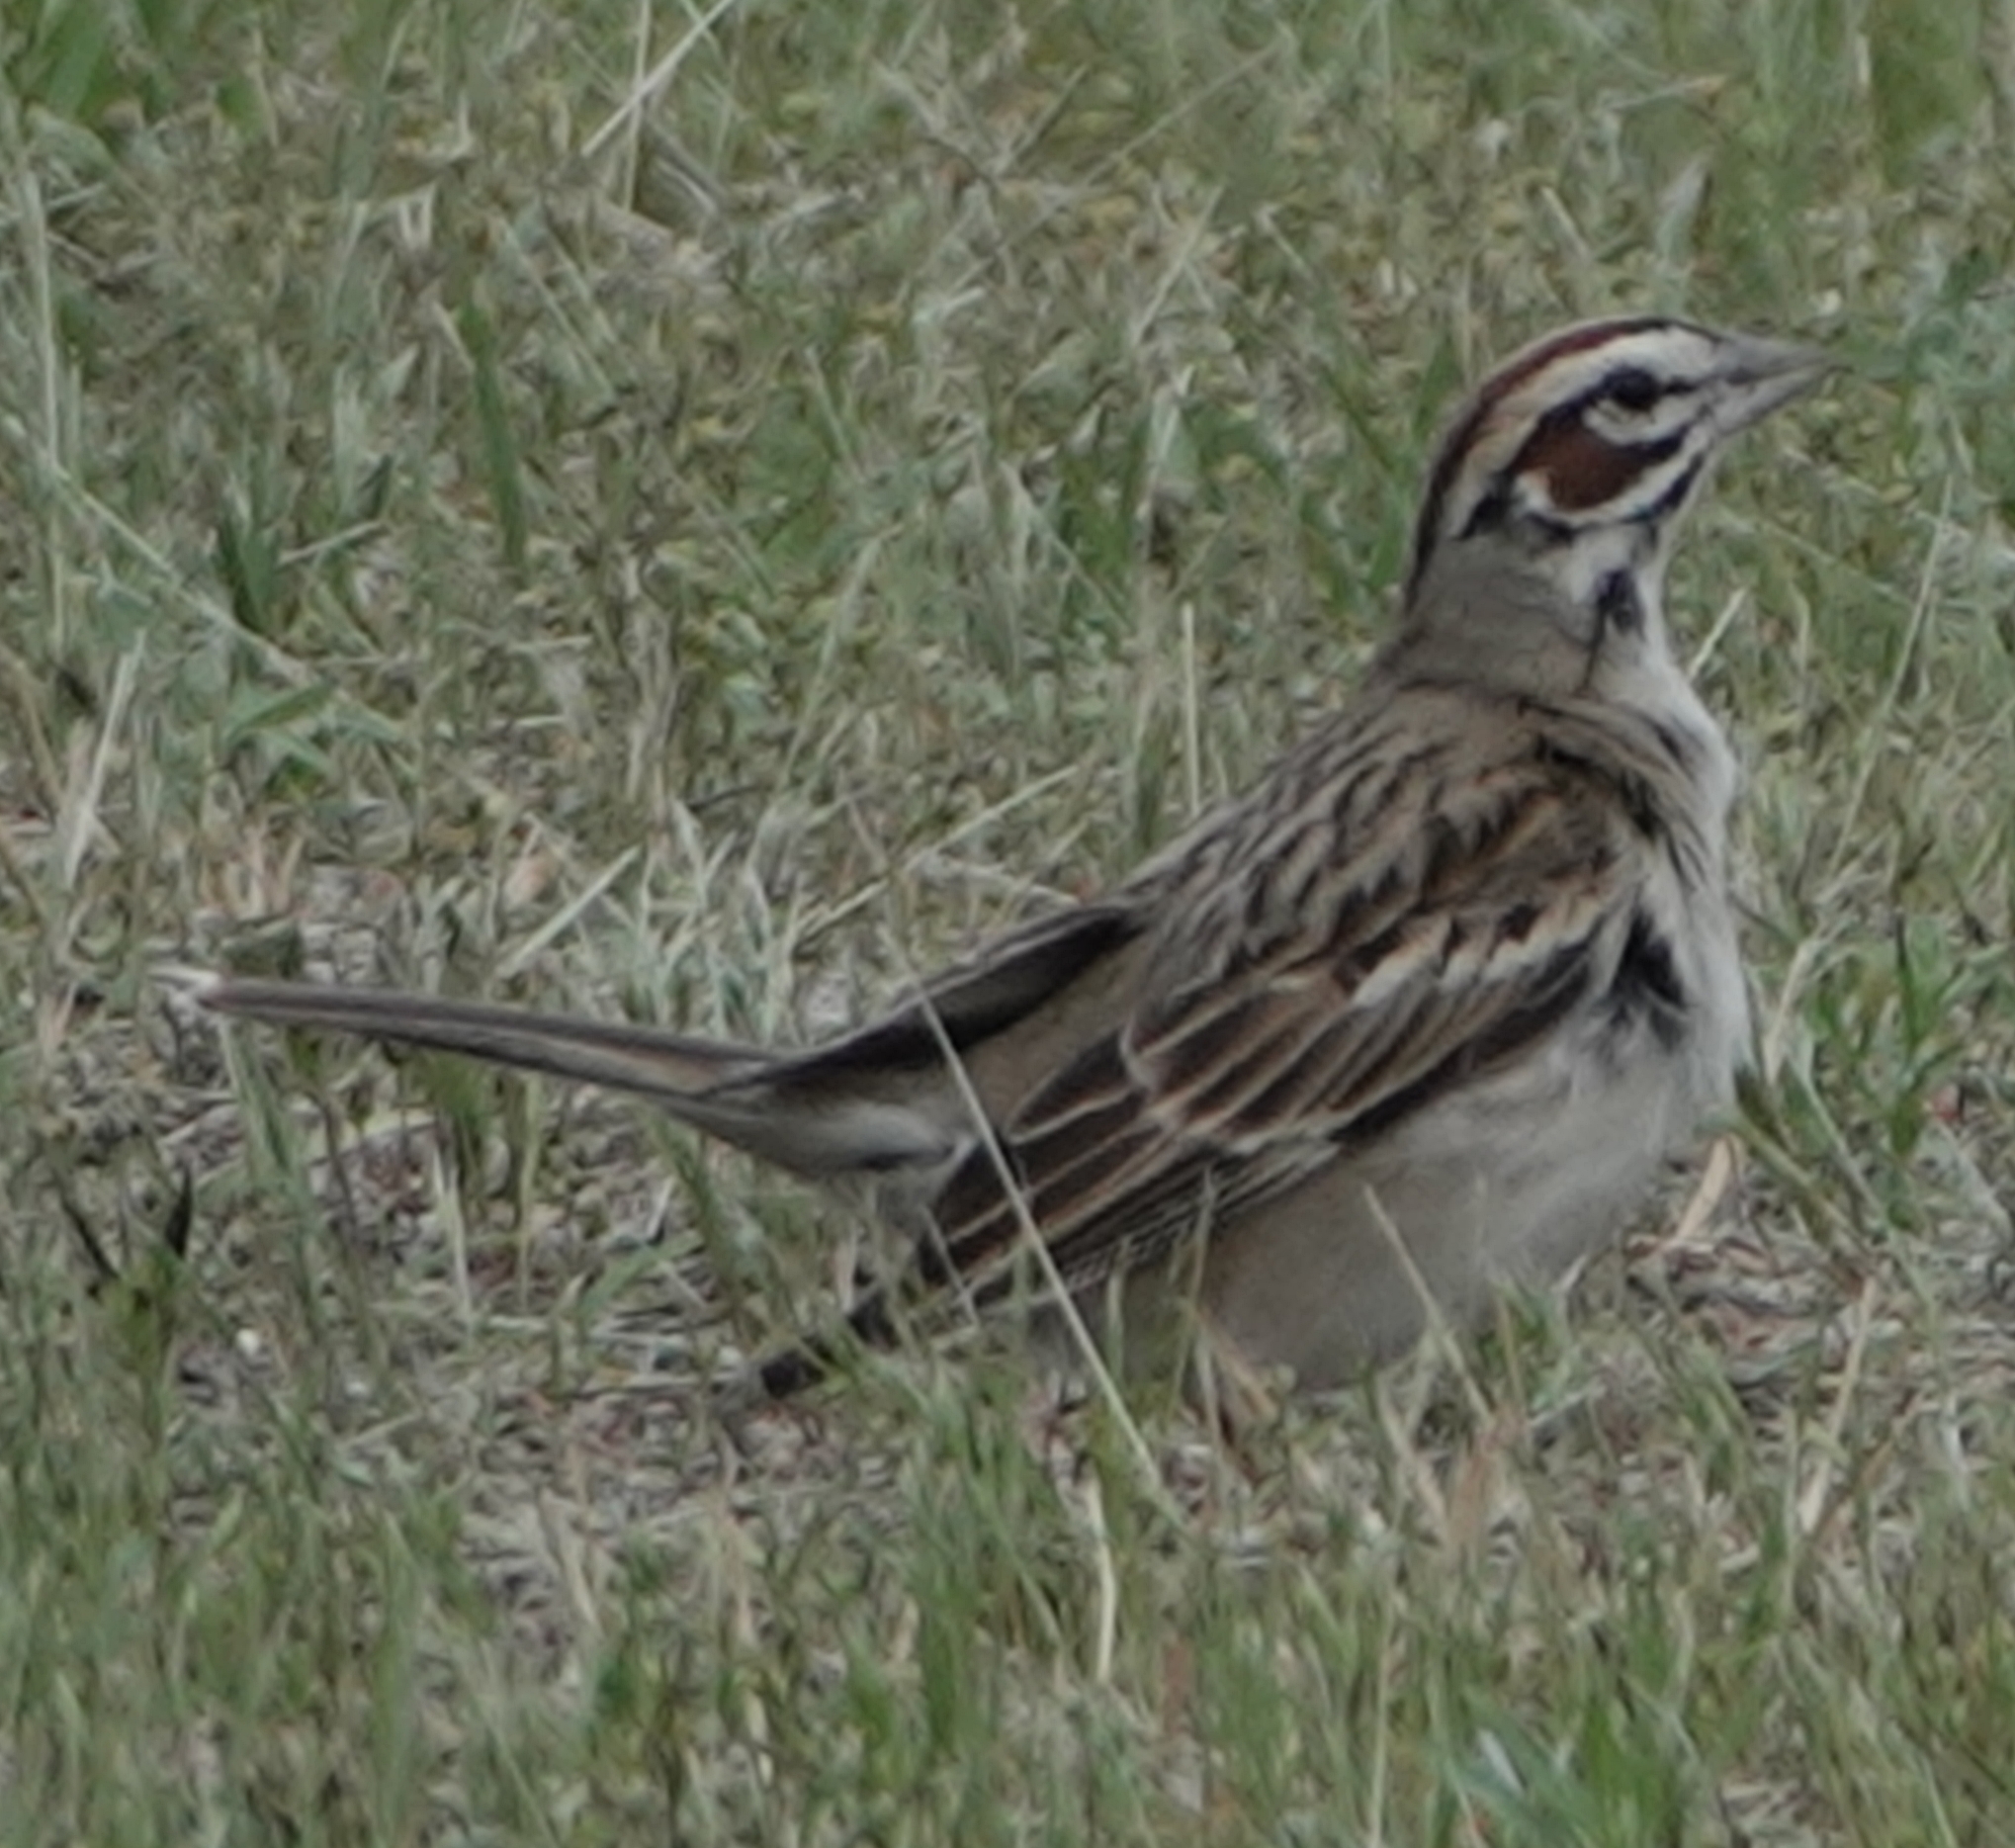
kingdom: Animalia
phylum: Chordata
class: Aves
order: Passeriformes
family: Passerellidae
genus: Chondestes
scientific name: Chondestes grammacus
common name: Lark sparrow
